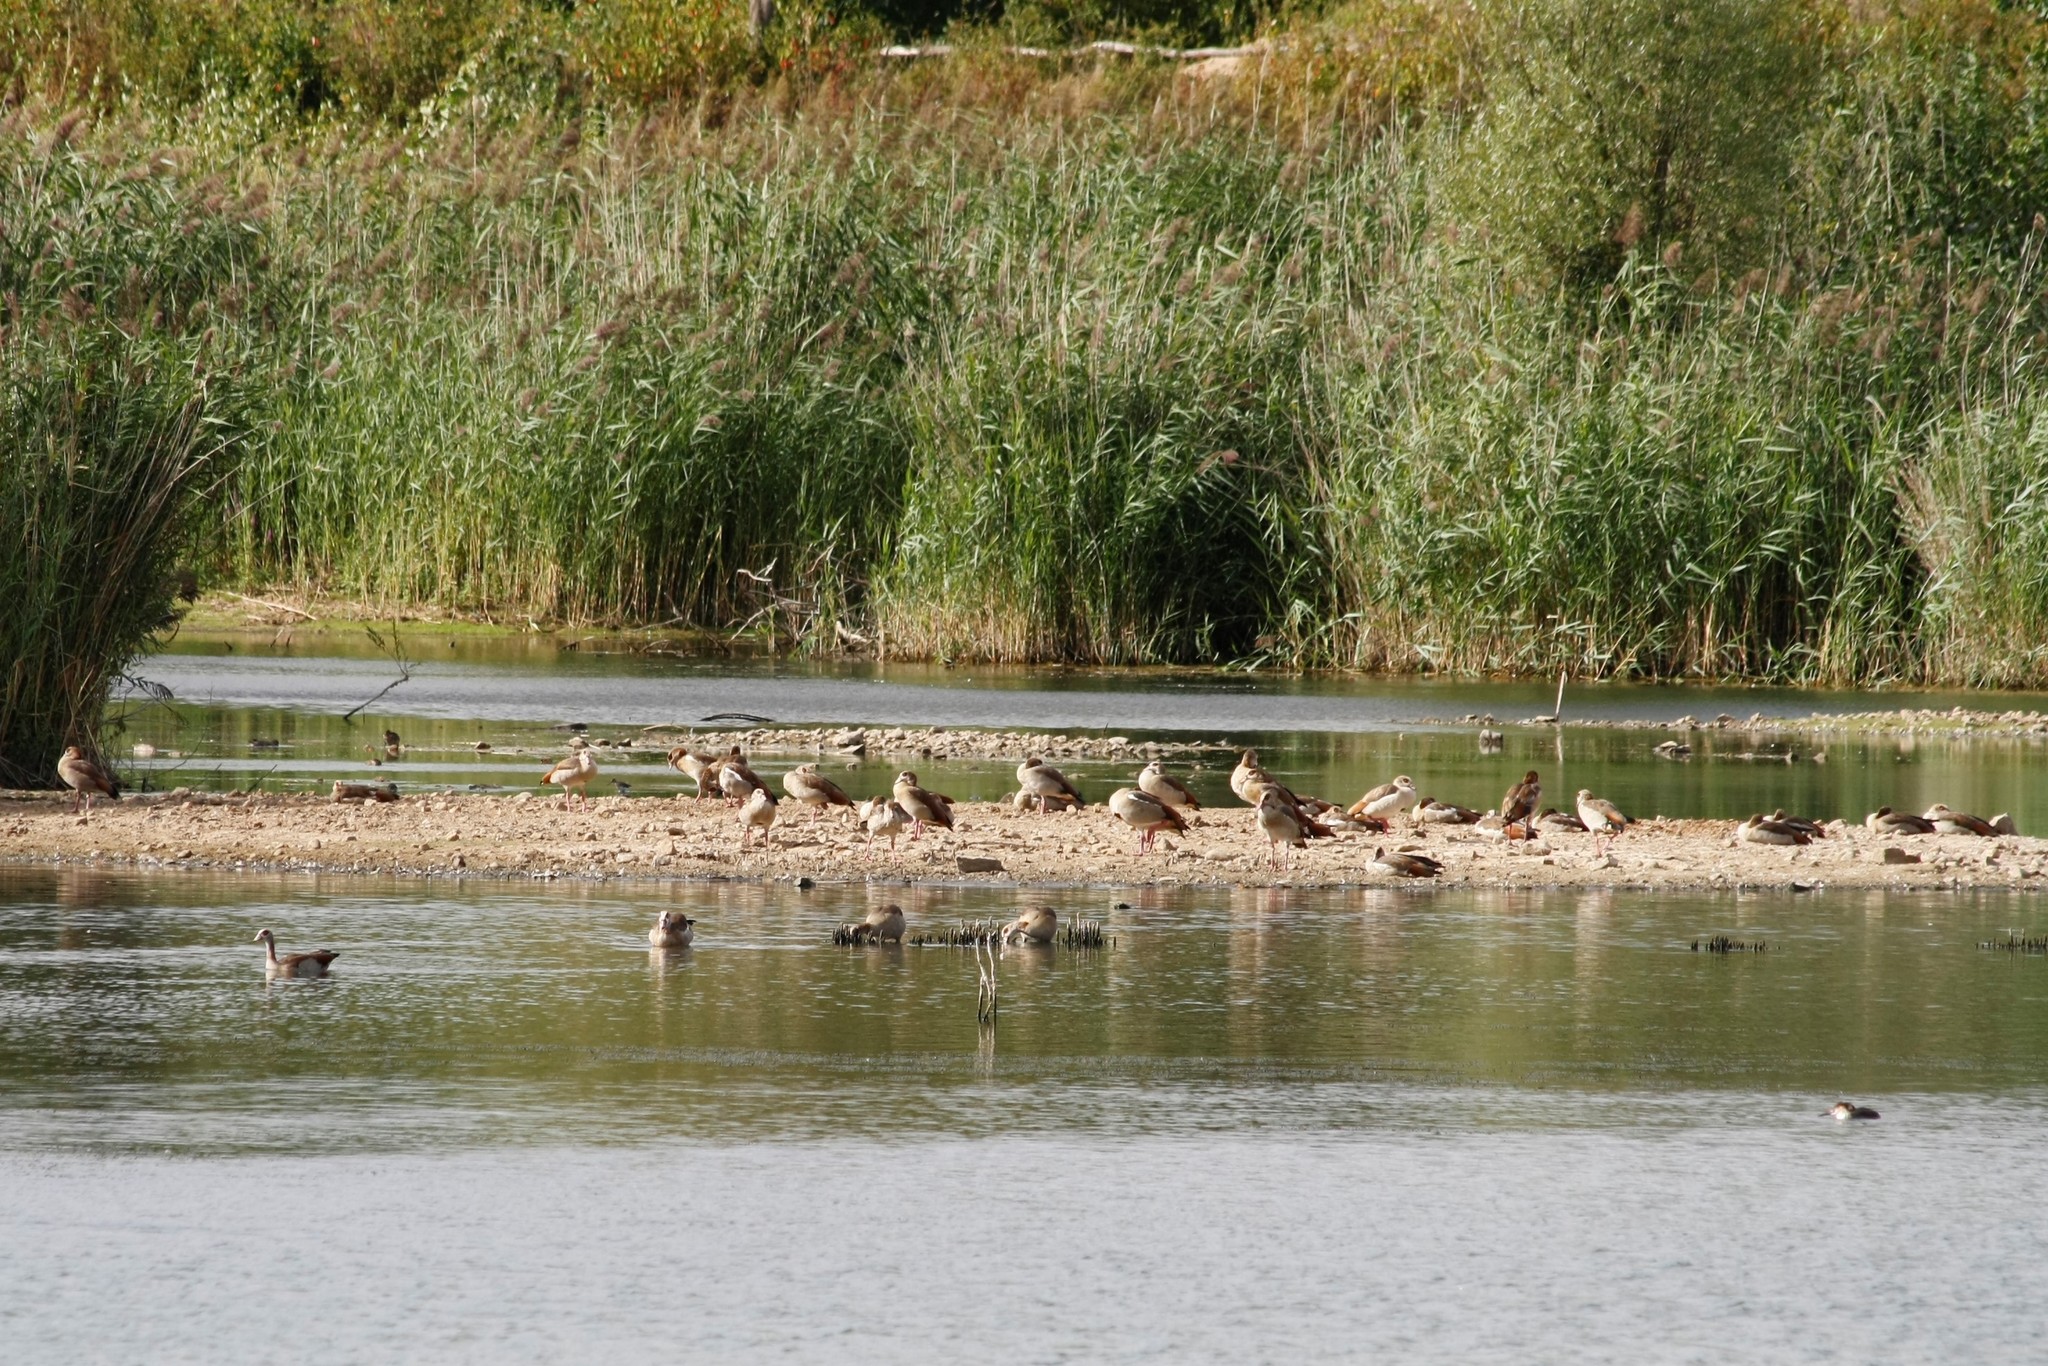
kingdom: Animalia
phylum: Chordata
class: Aves
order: Anseriformes
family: Anatidae
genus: Alopochen
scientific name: Alopochen aegyptiaca
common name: Egyptian goose
